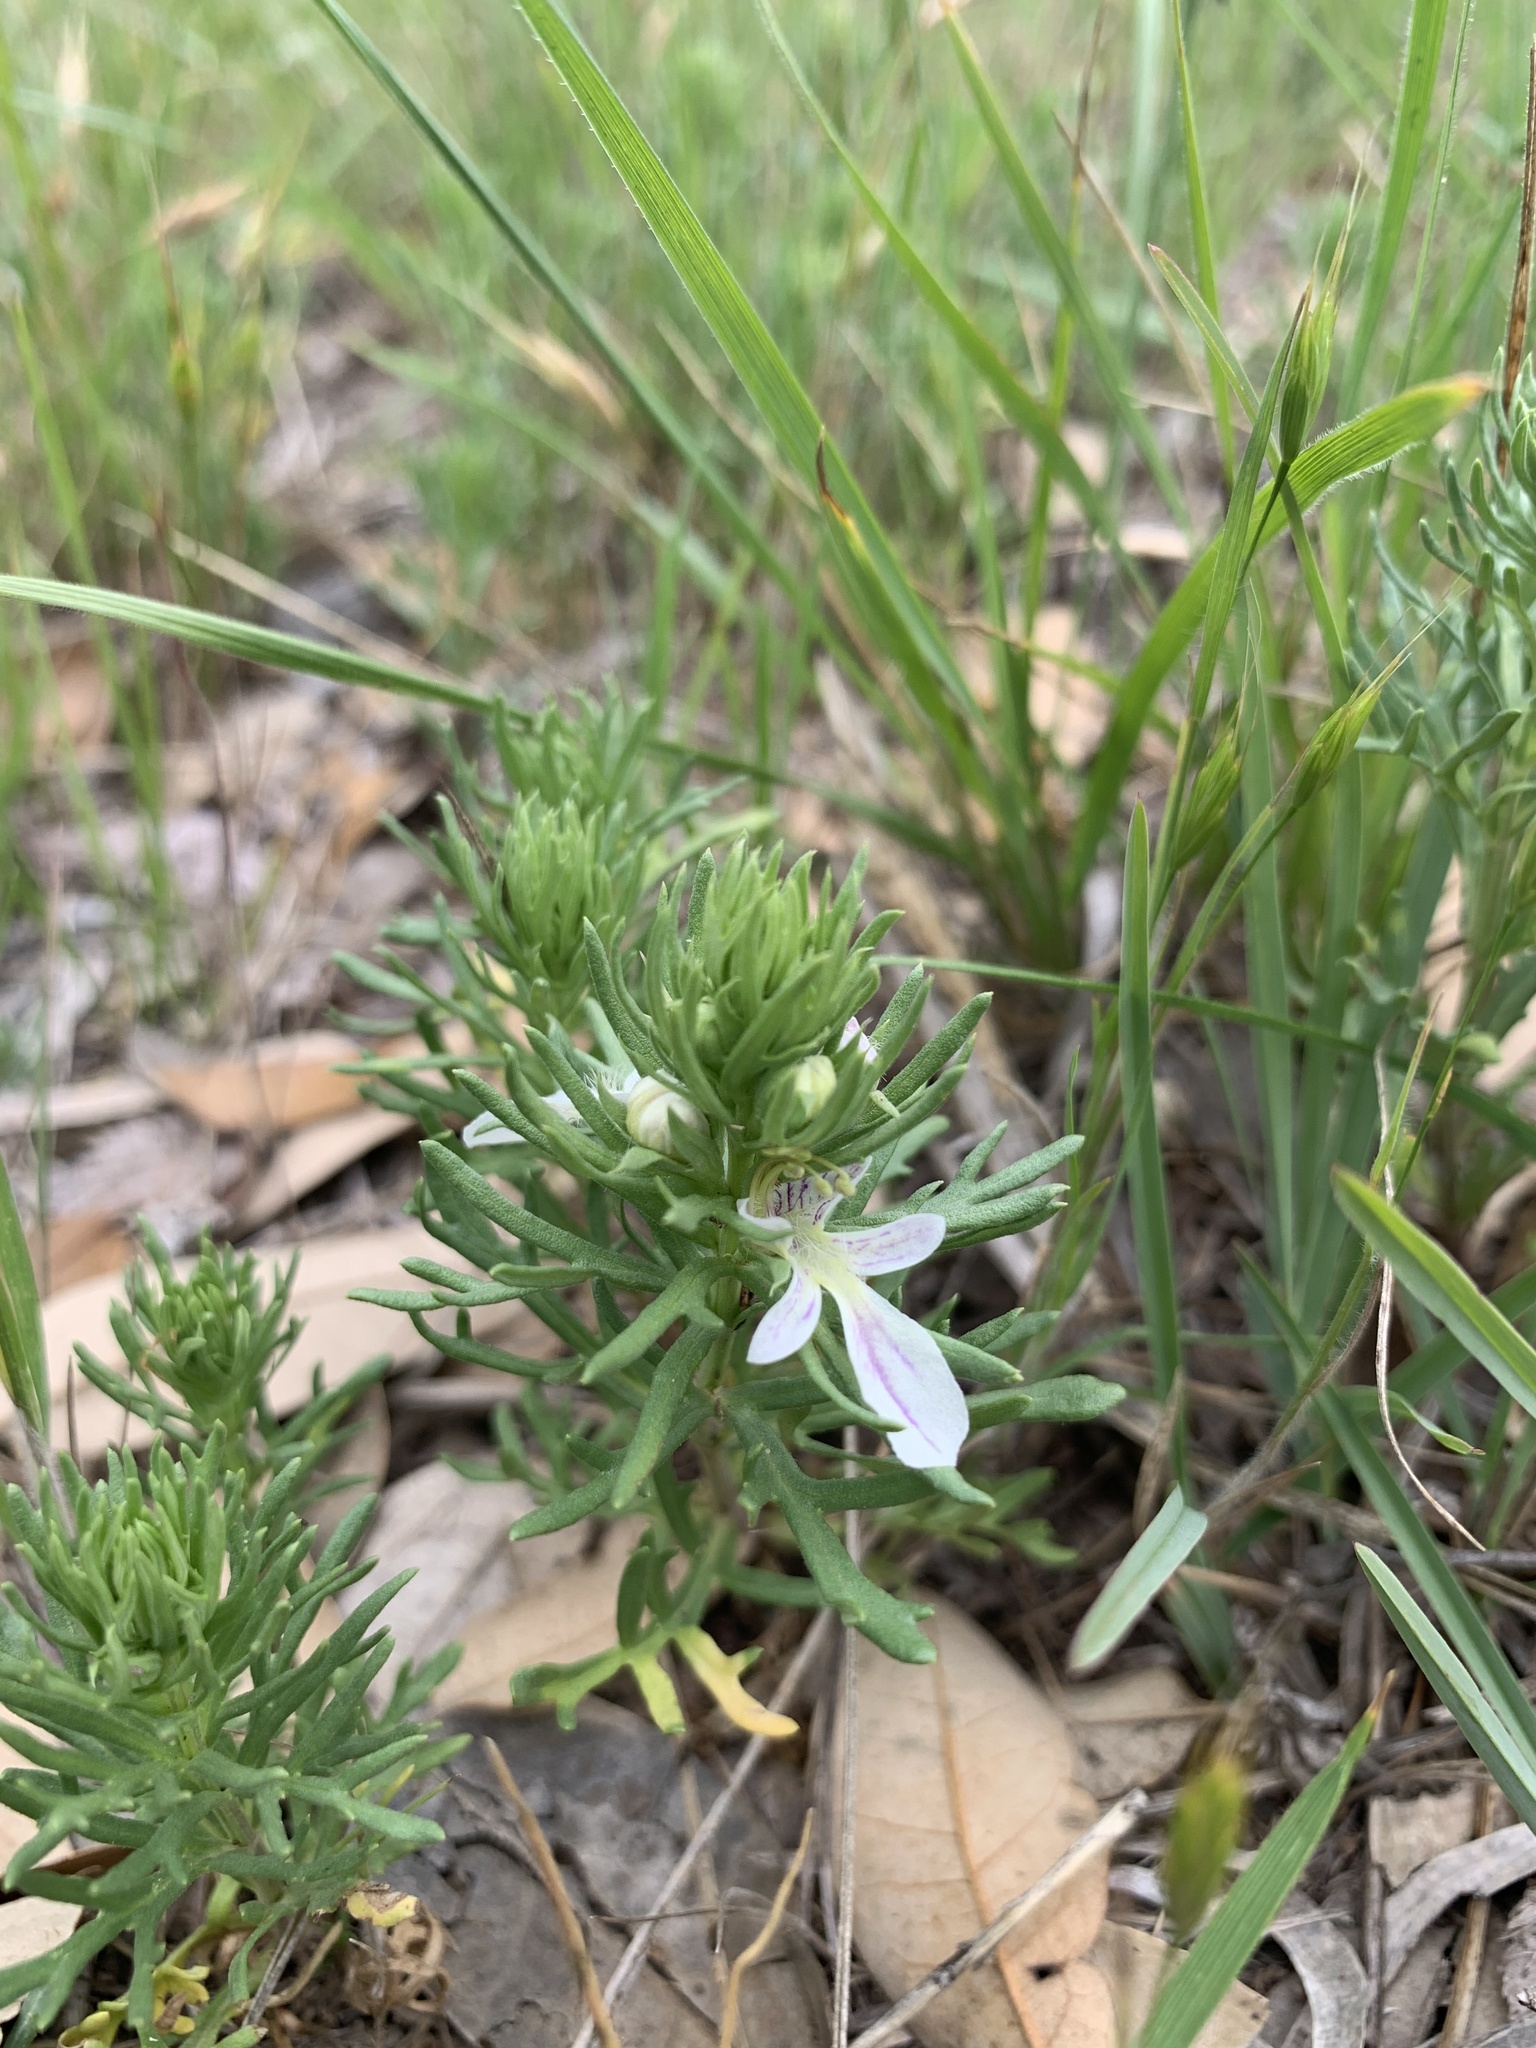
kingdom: Plantae
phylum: Tracheophyta
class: Magnoliopsida
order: Lamiales
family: Lamiaceae
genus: Teucrium
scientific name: Teucrium laciniatum
